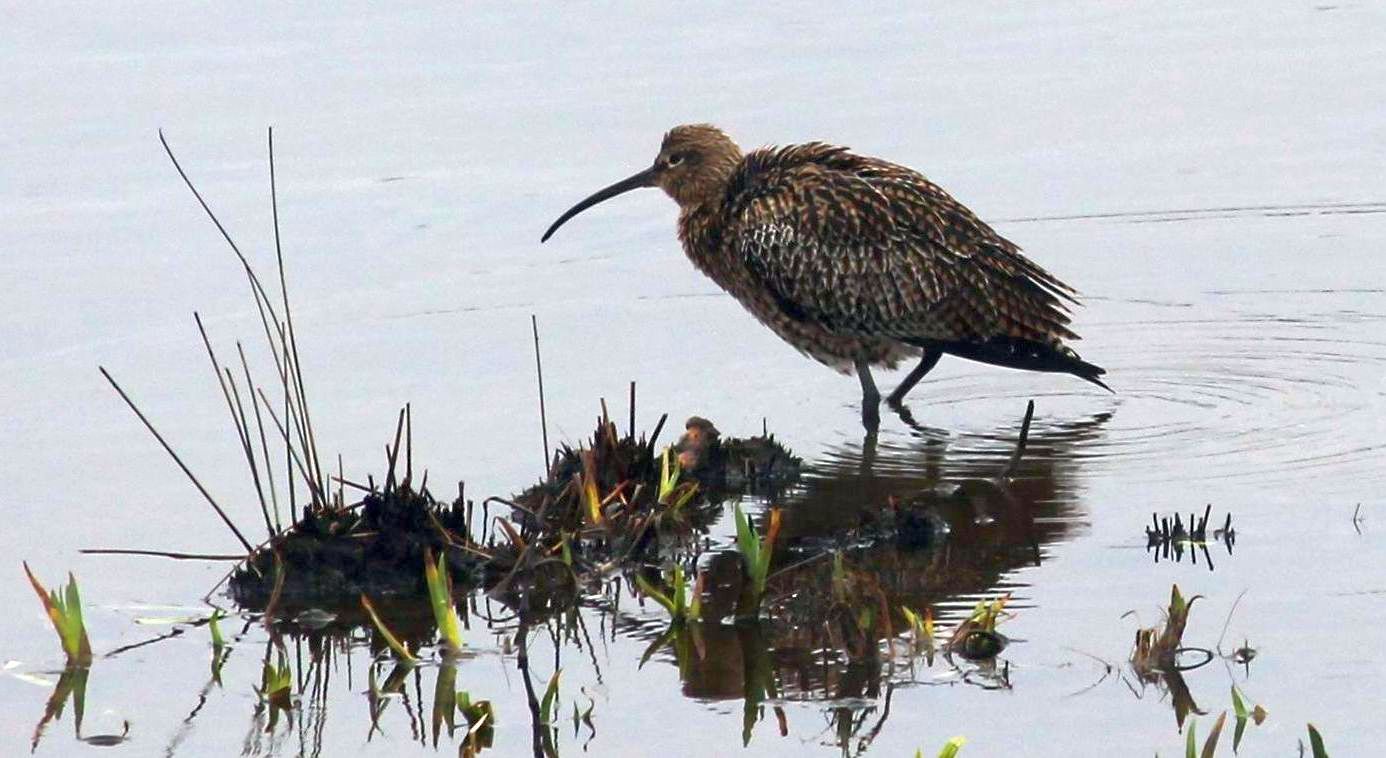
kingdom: Animalia
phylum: Chordata
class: Aves
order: Charadriiformes
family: Scolopacidae
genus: Numenius
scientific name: Numenius arquata
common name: Eurasian curlew
